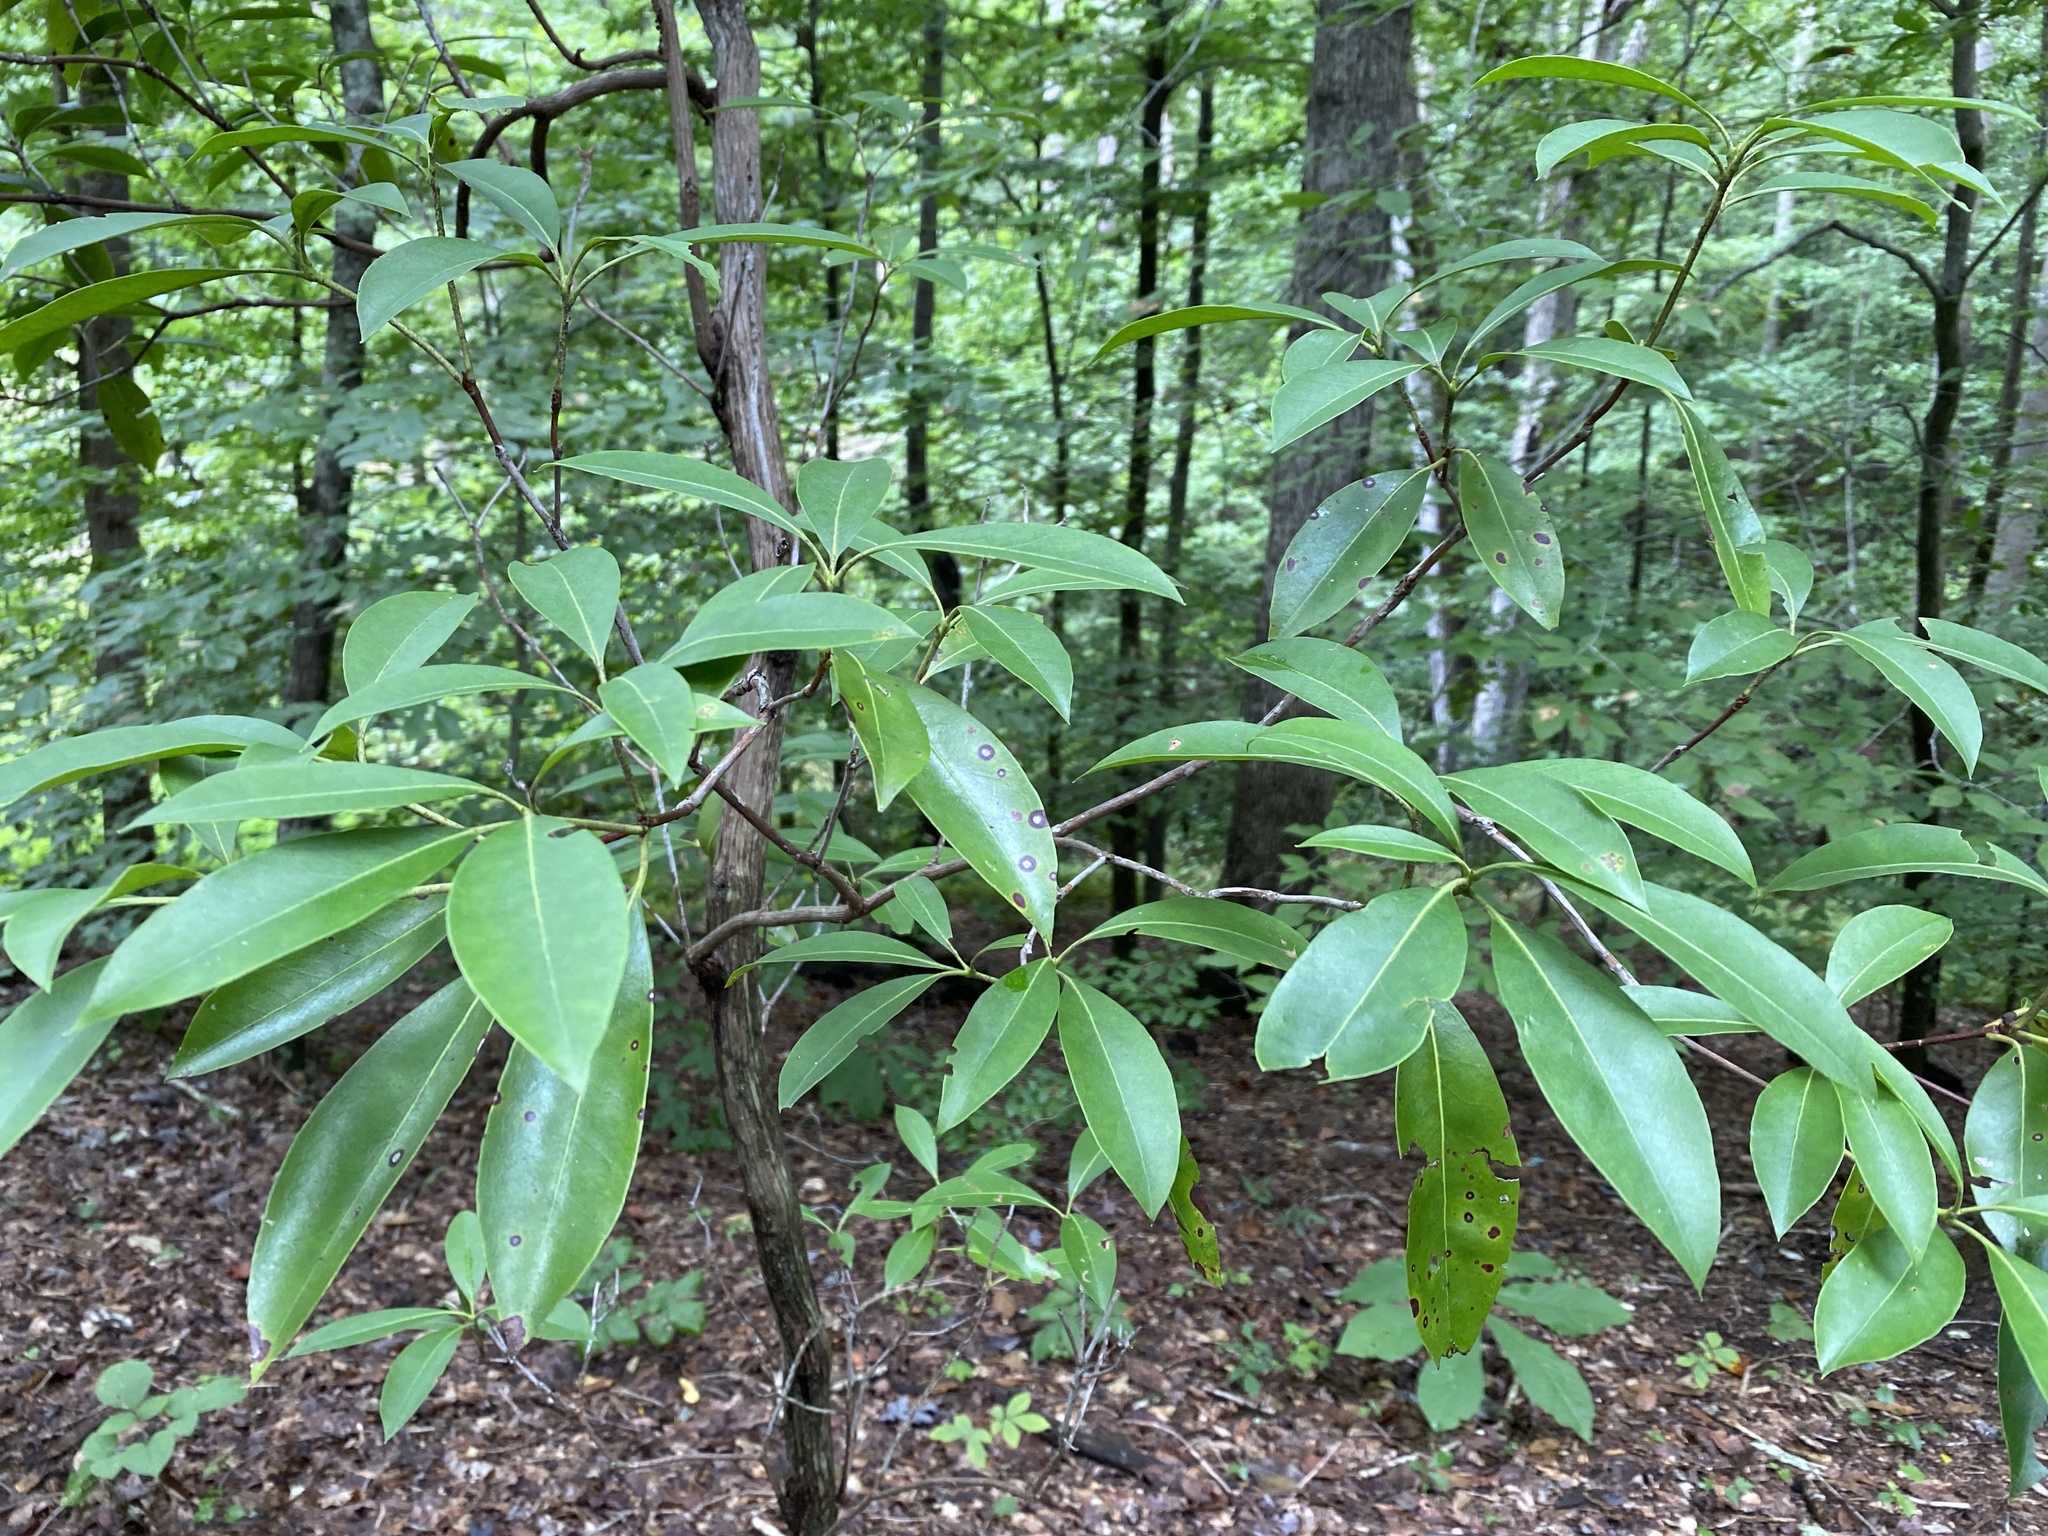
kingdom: Plantae
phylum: Tracheophyta
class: Magnoliopsida
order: Ericales
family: Ericaceae
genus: Kalmia
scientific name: Kalmia latifolia
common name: Mountain-laurel
